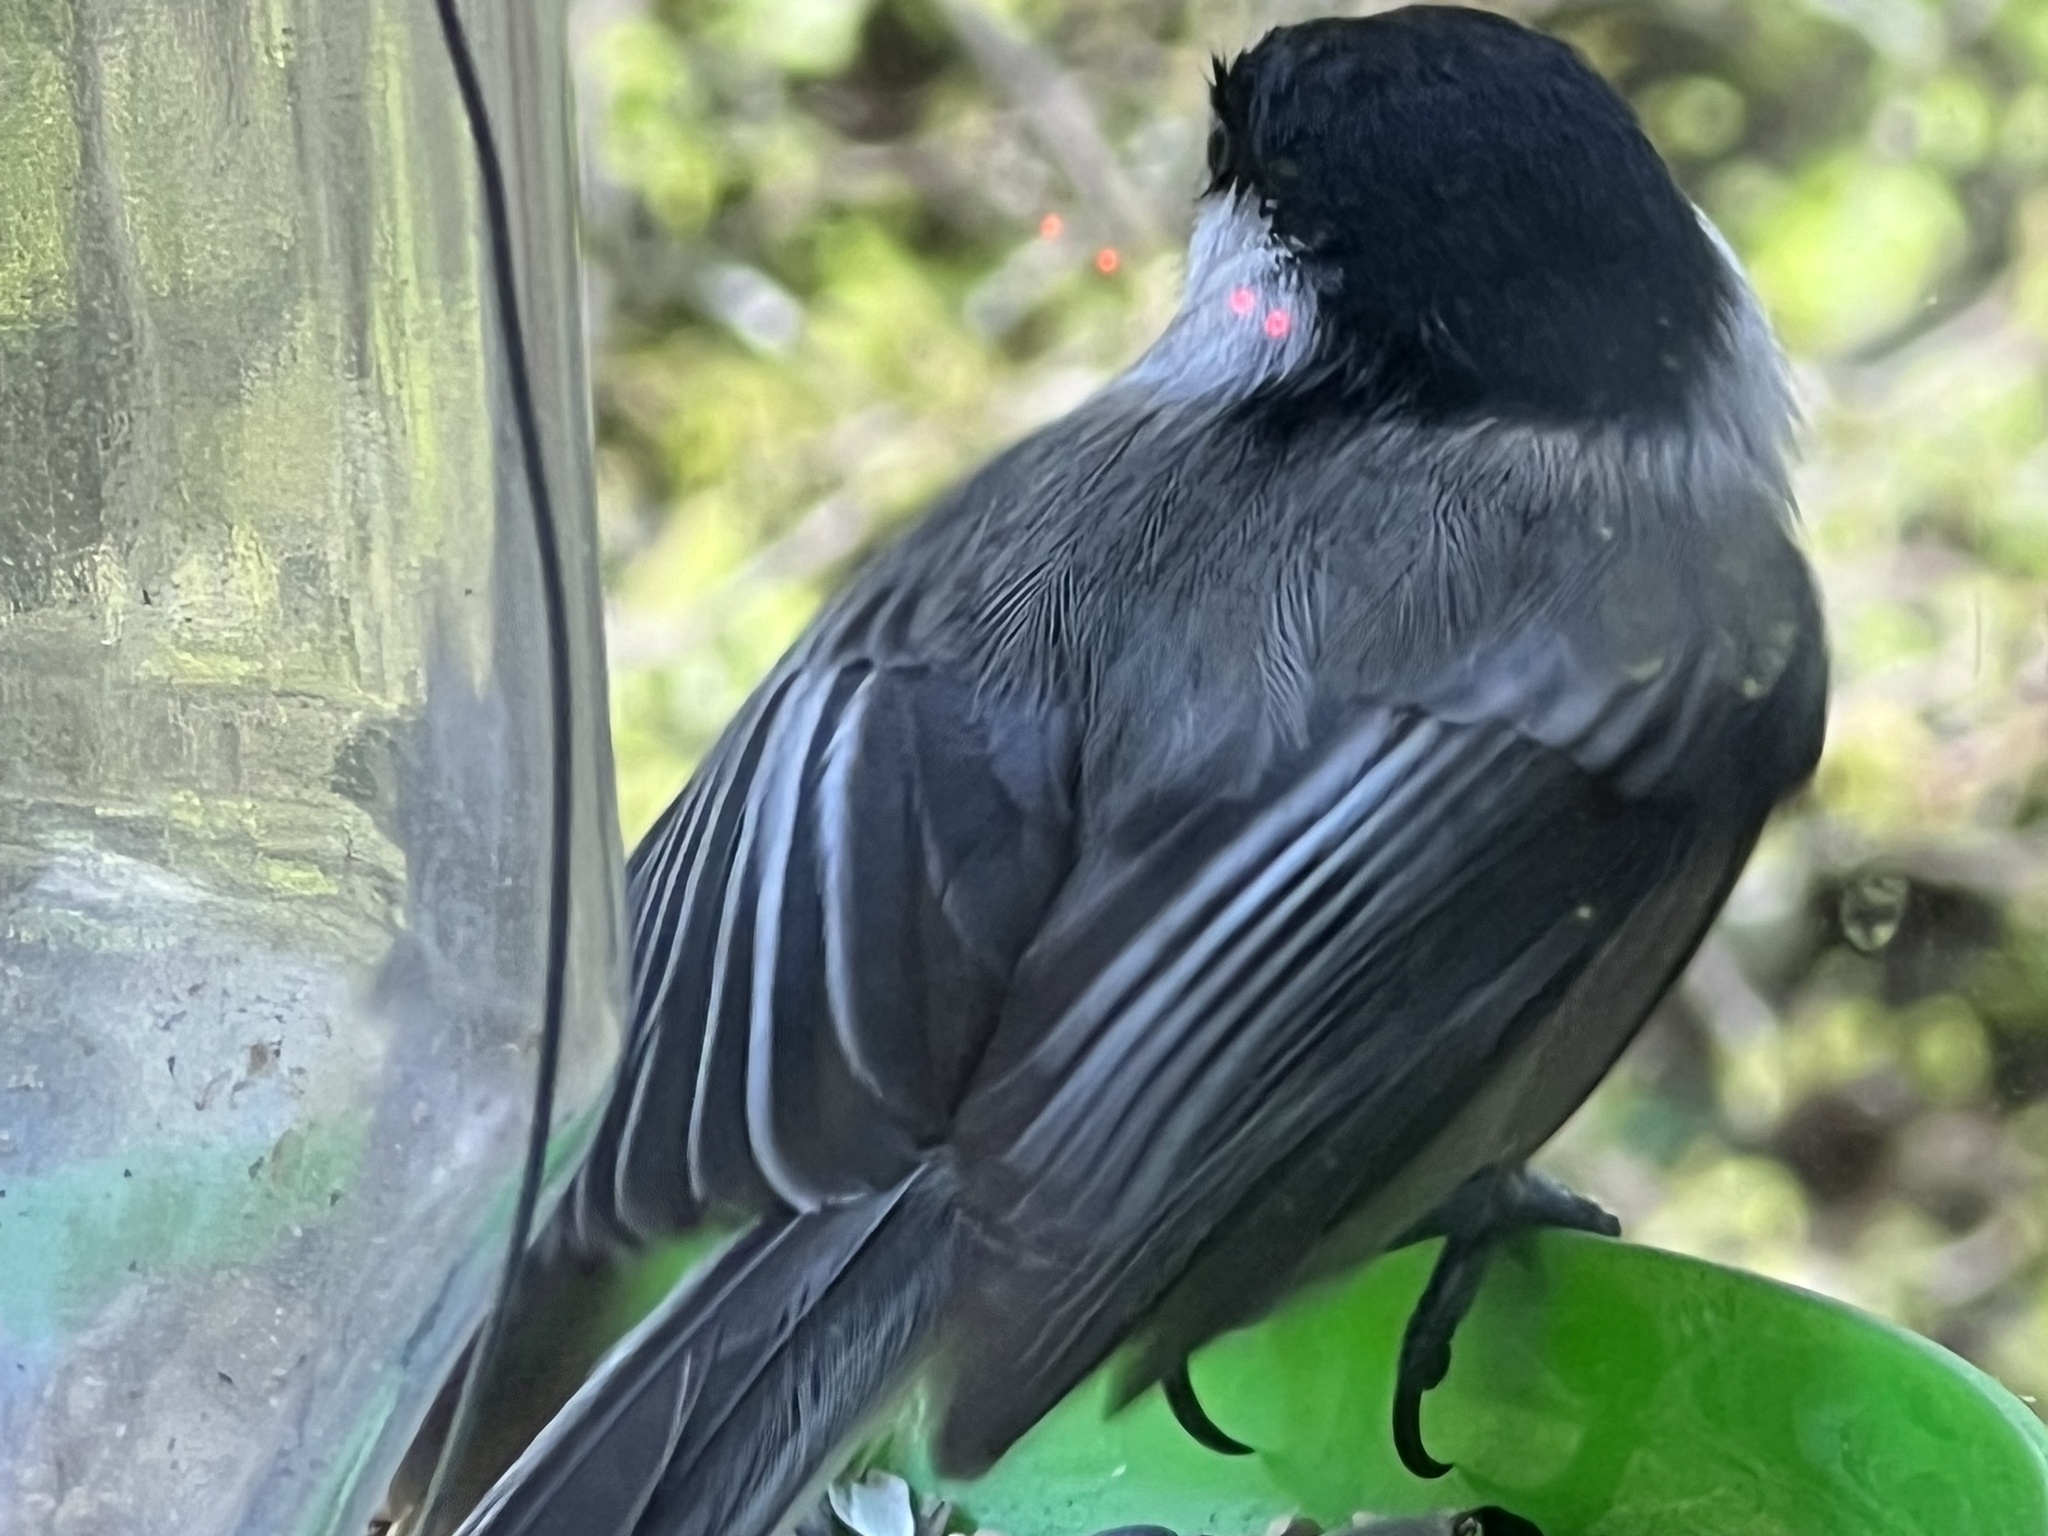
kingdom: Animalia
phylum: Chordata
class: Aves
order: Passeriformes
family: Paridae
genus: Poecile
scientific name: Poecile atricapillus
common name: Black-capped chickadee
